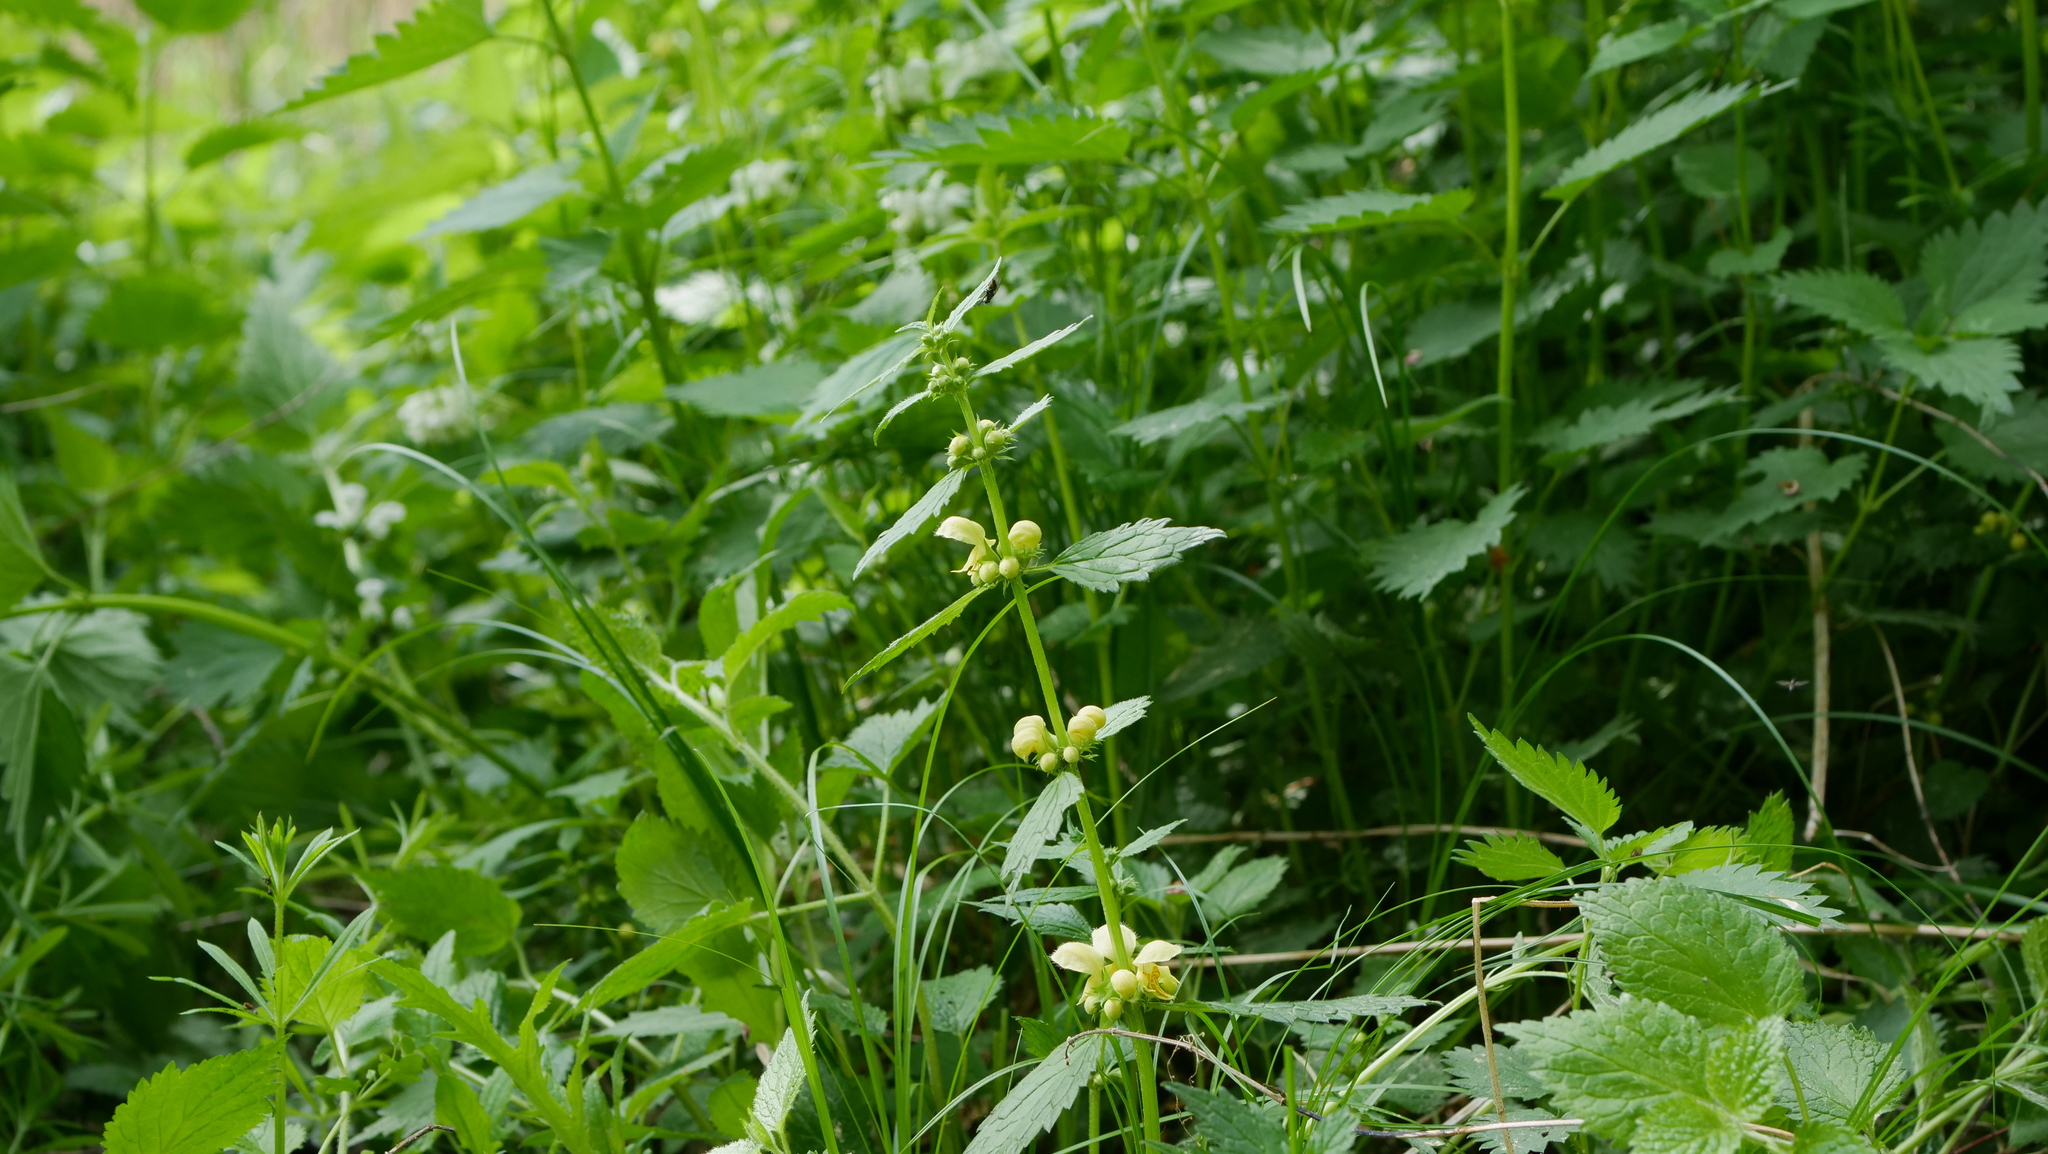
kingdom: Plantae
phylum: Tracheophyta
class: Magnoliopsida
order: Lamiales
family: Lamiaceae
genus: Lamium
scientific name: Lamium galeobdolon
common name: Yellow archangel
